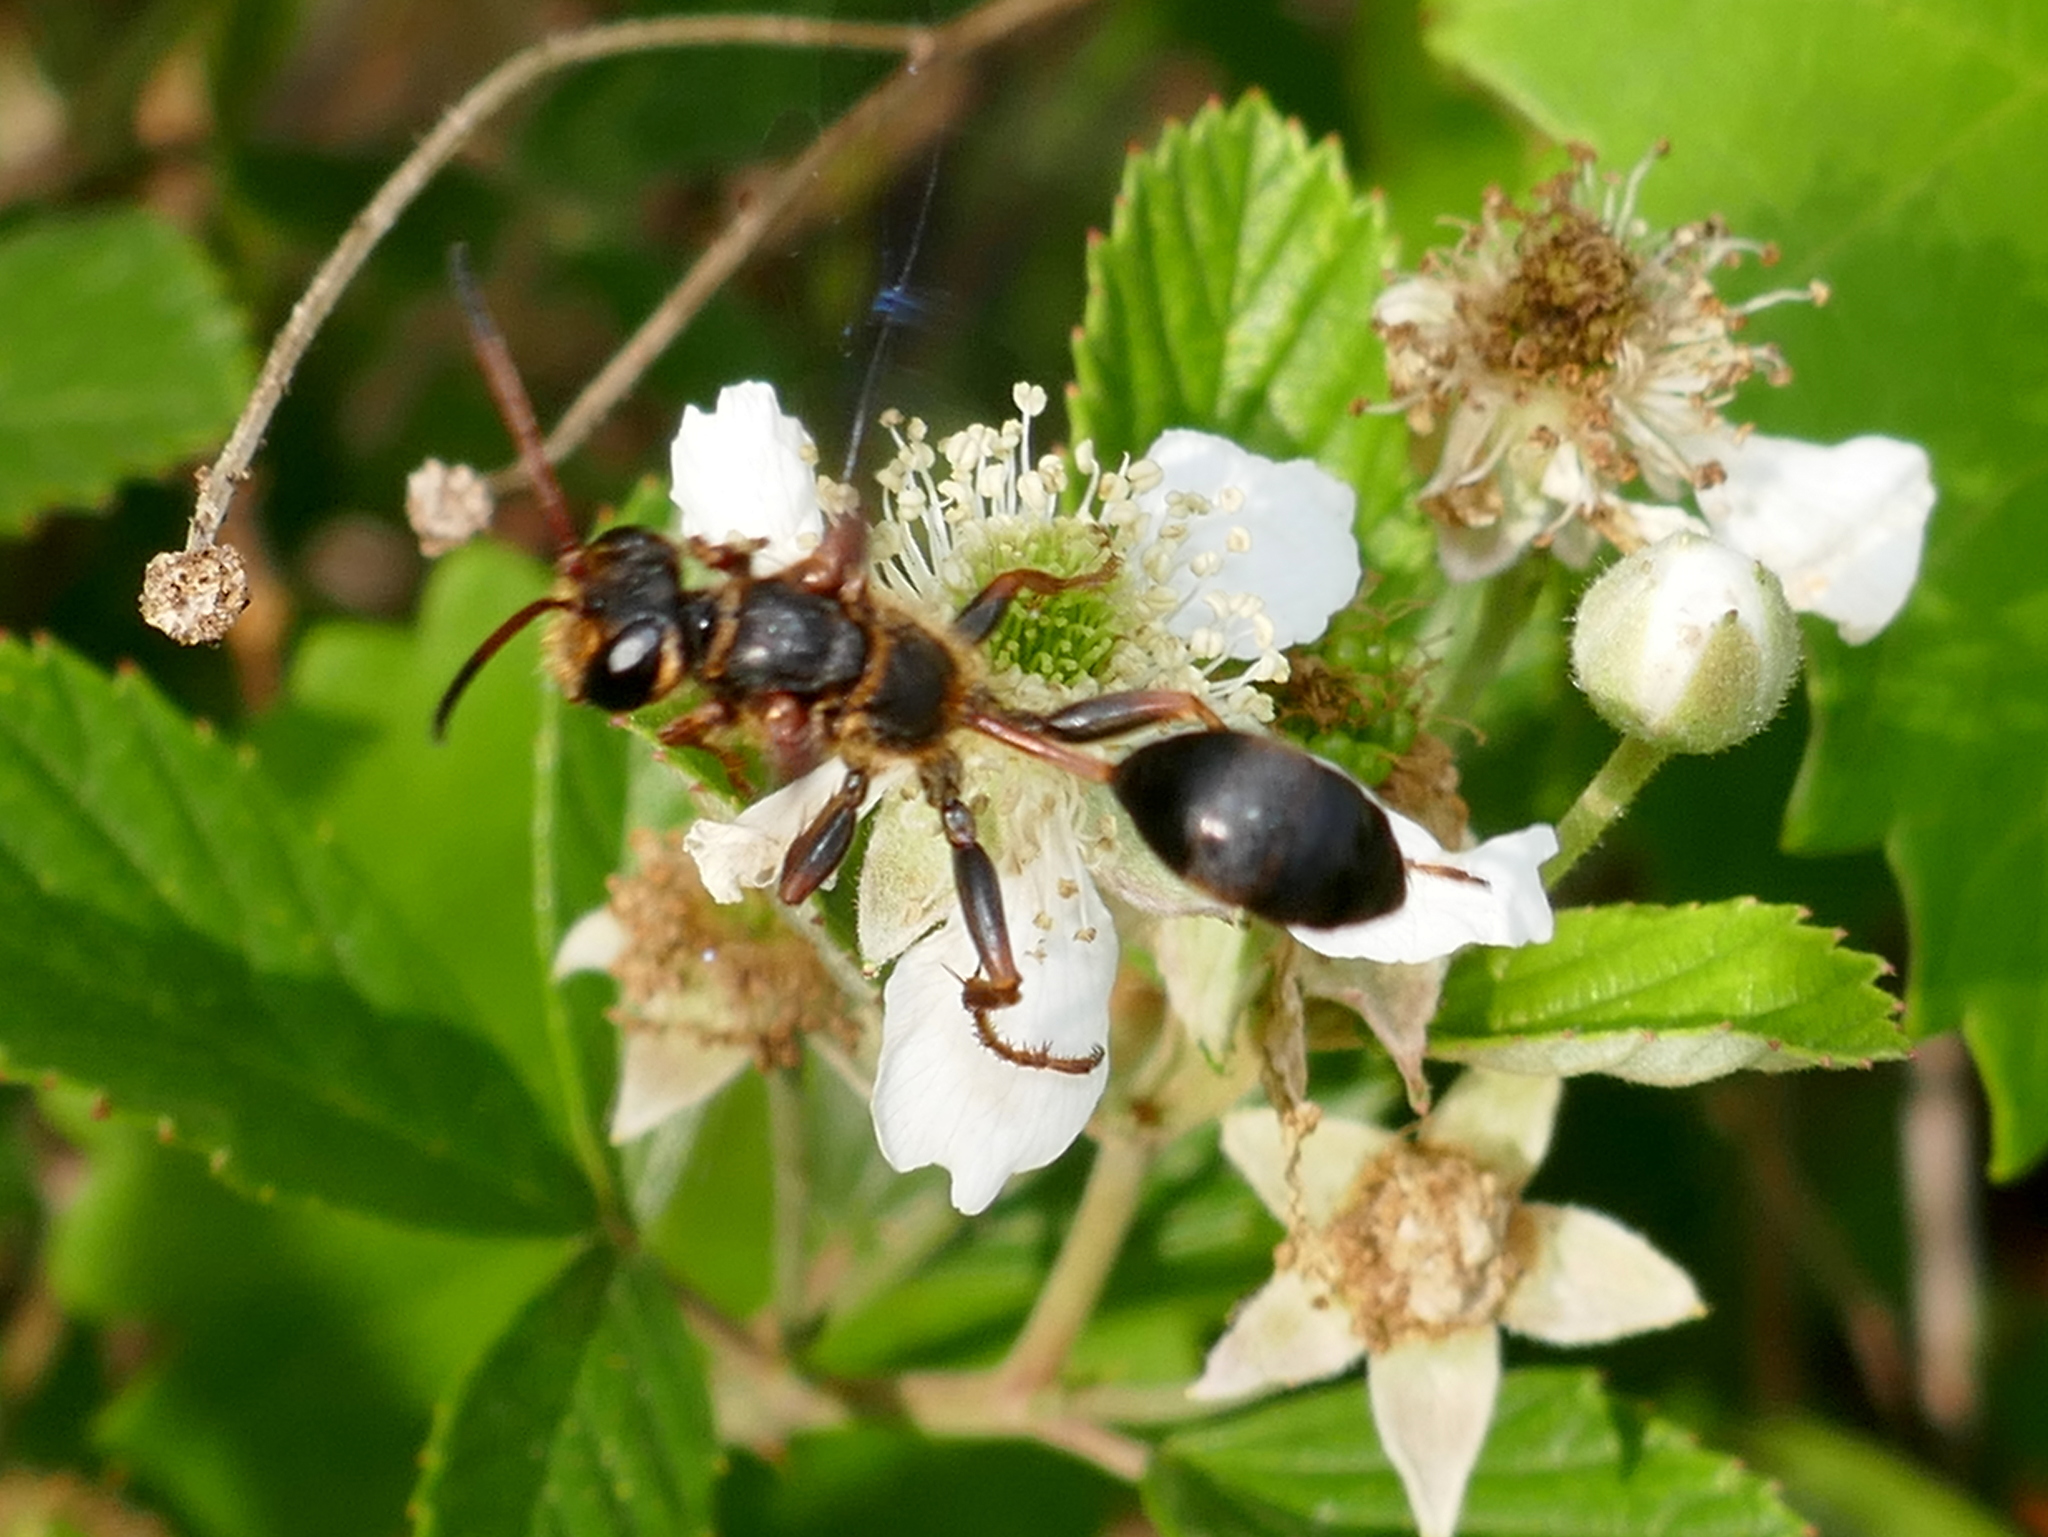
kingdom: Animalia
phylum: Arthropoda
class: Insecta
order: Hymenoptera
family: Sphecidae
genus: Isodontia
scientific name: Isodontia exornata
